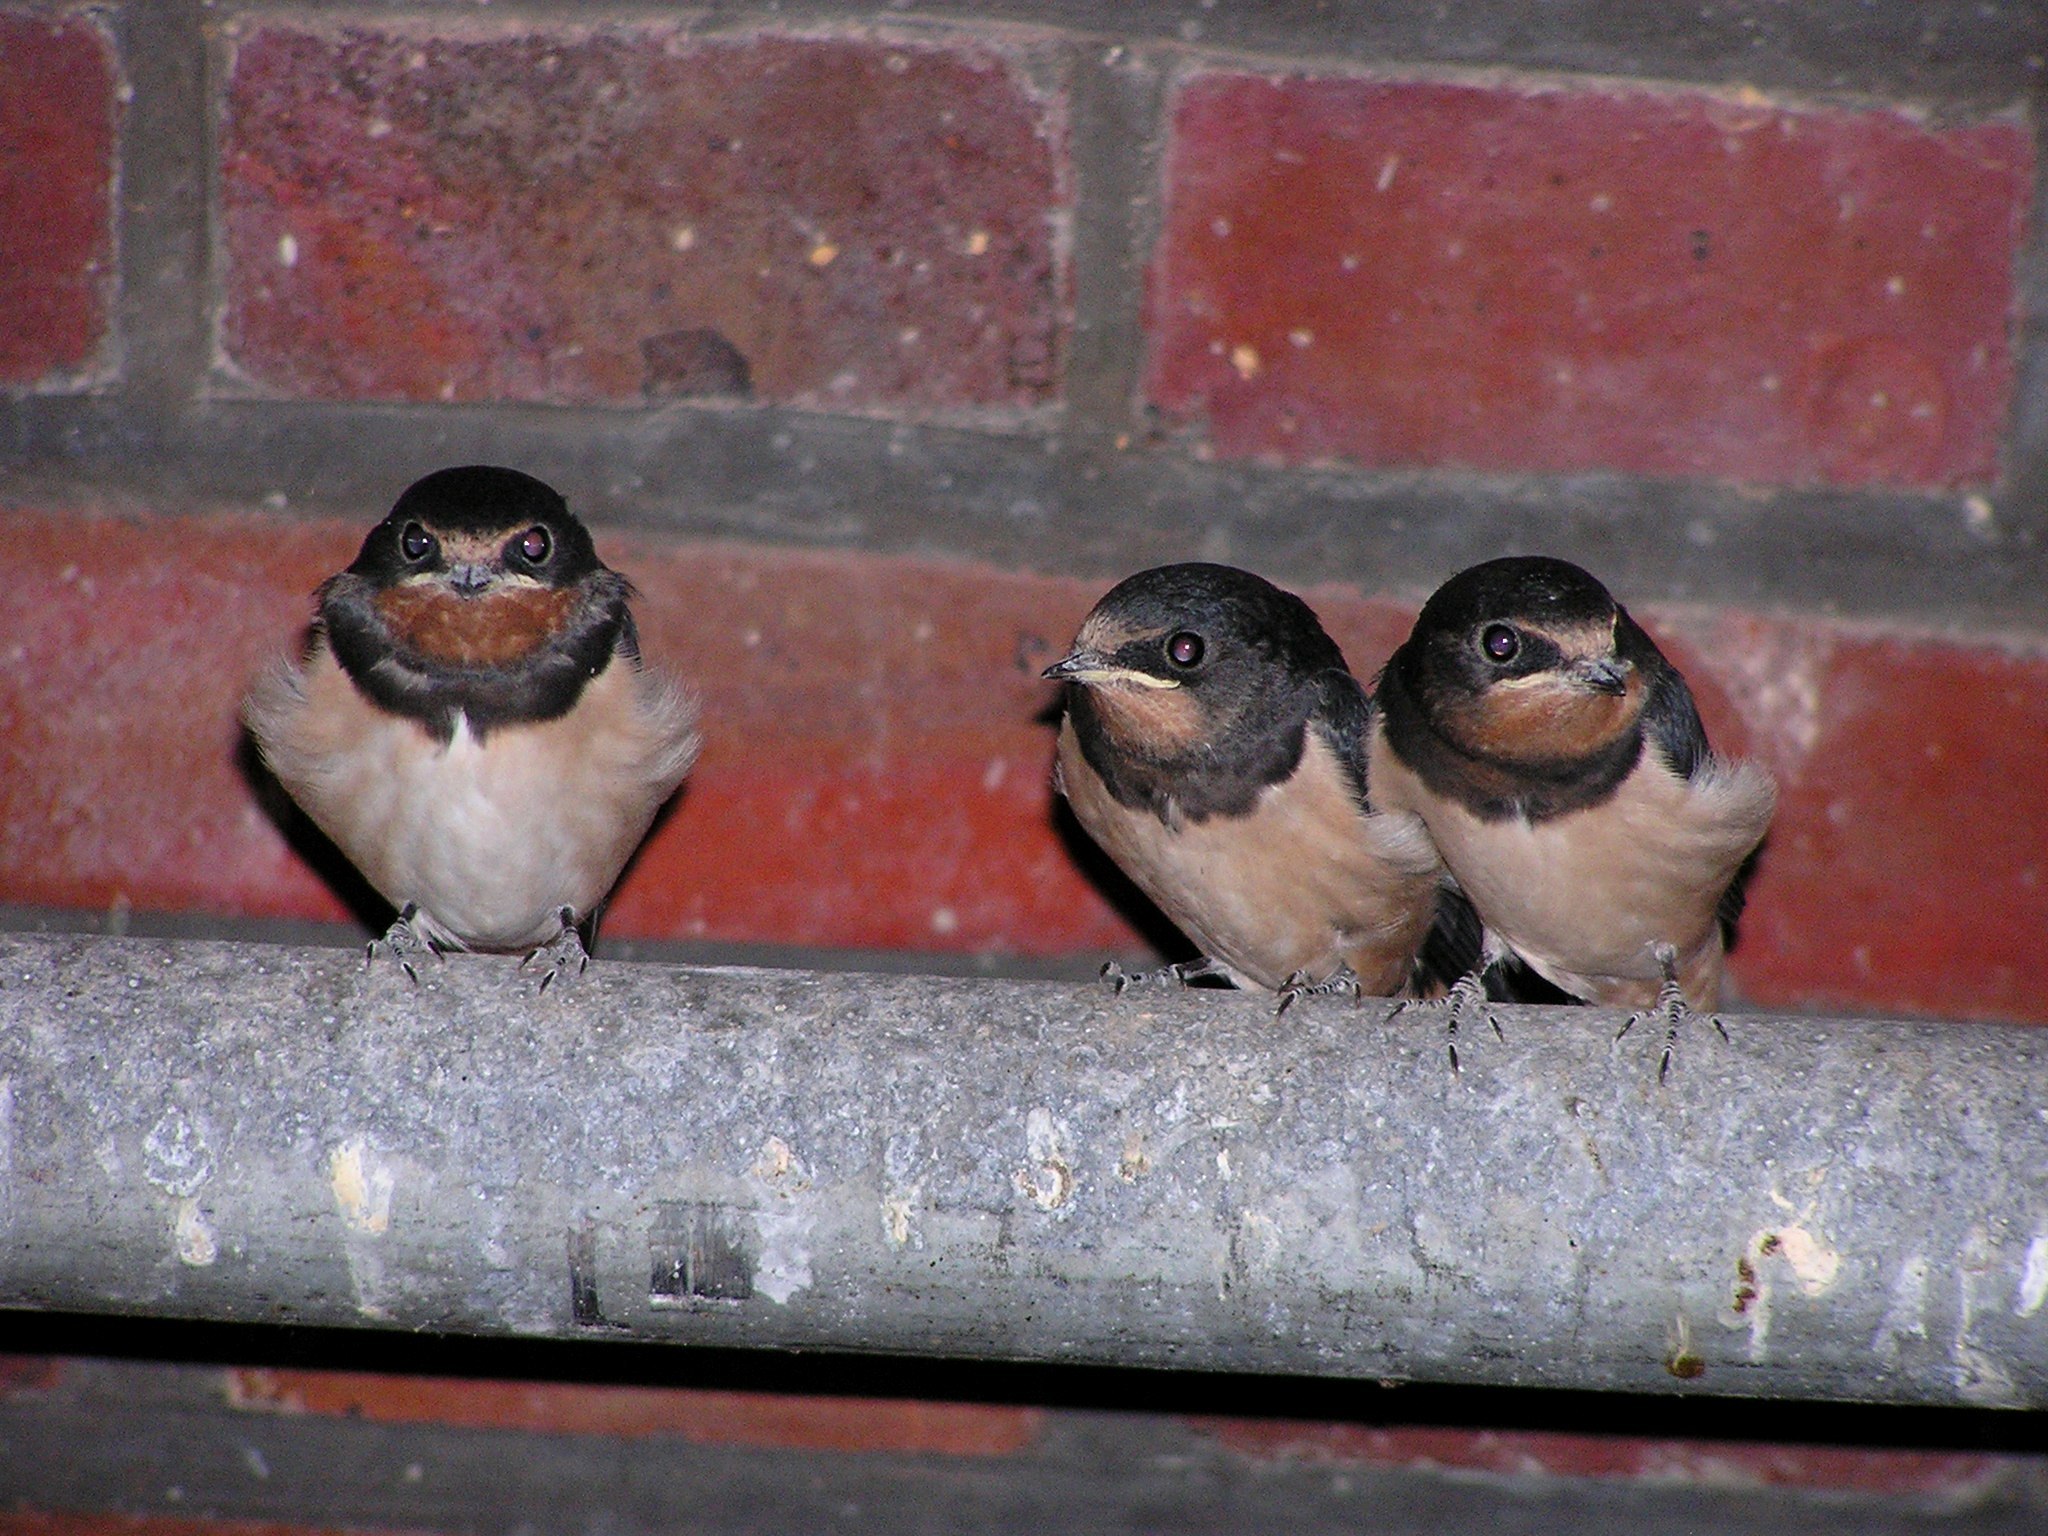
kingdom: Animalia
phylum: Chordata
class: Aves
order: Passeriformes
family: Hirundinidae
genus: Hirundo
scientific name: Hirundo rustica
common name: Barn swallow
